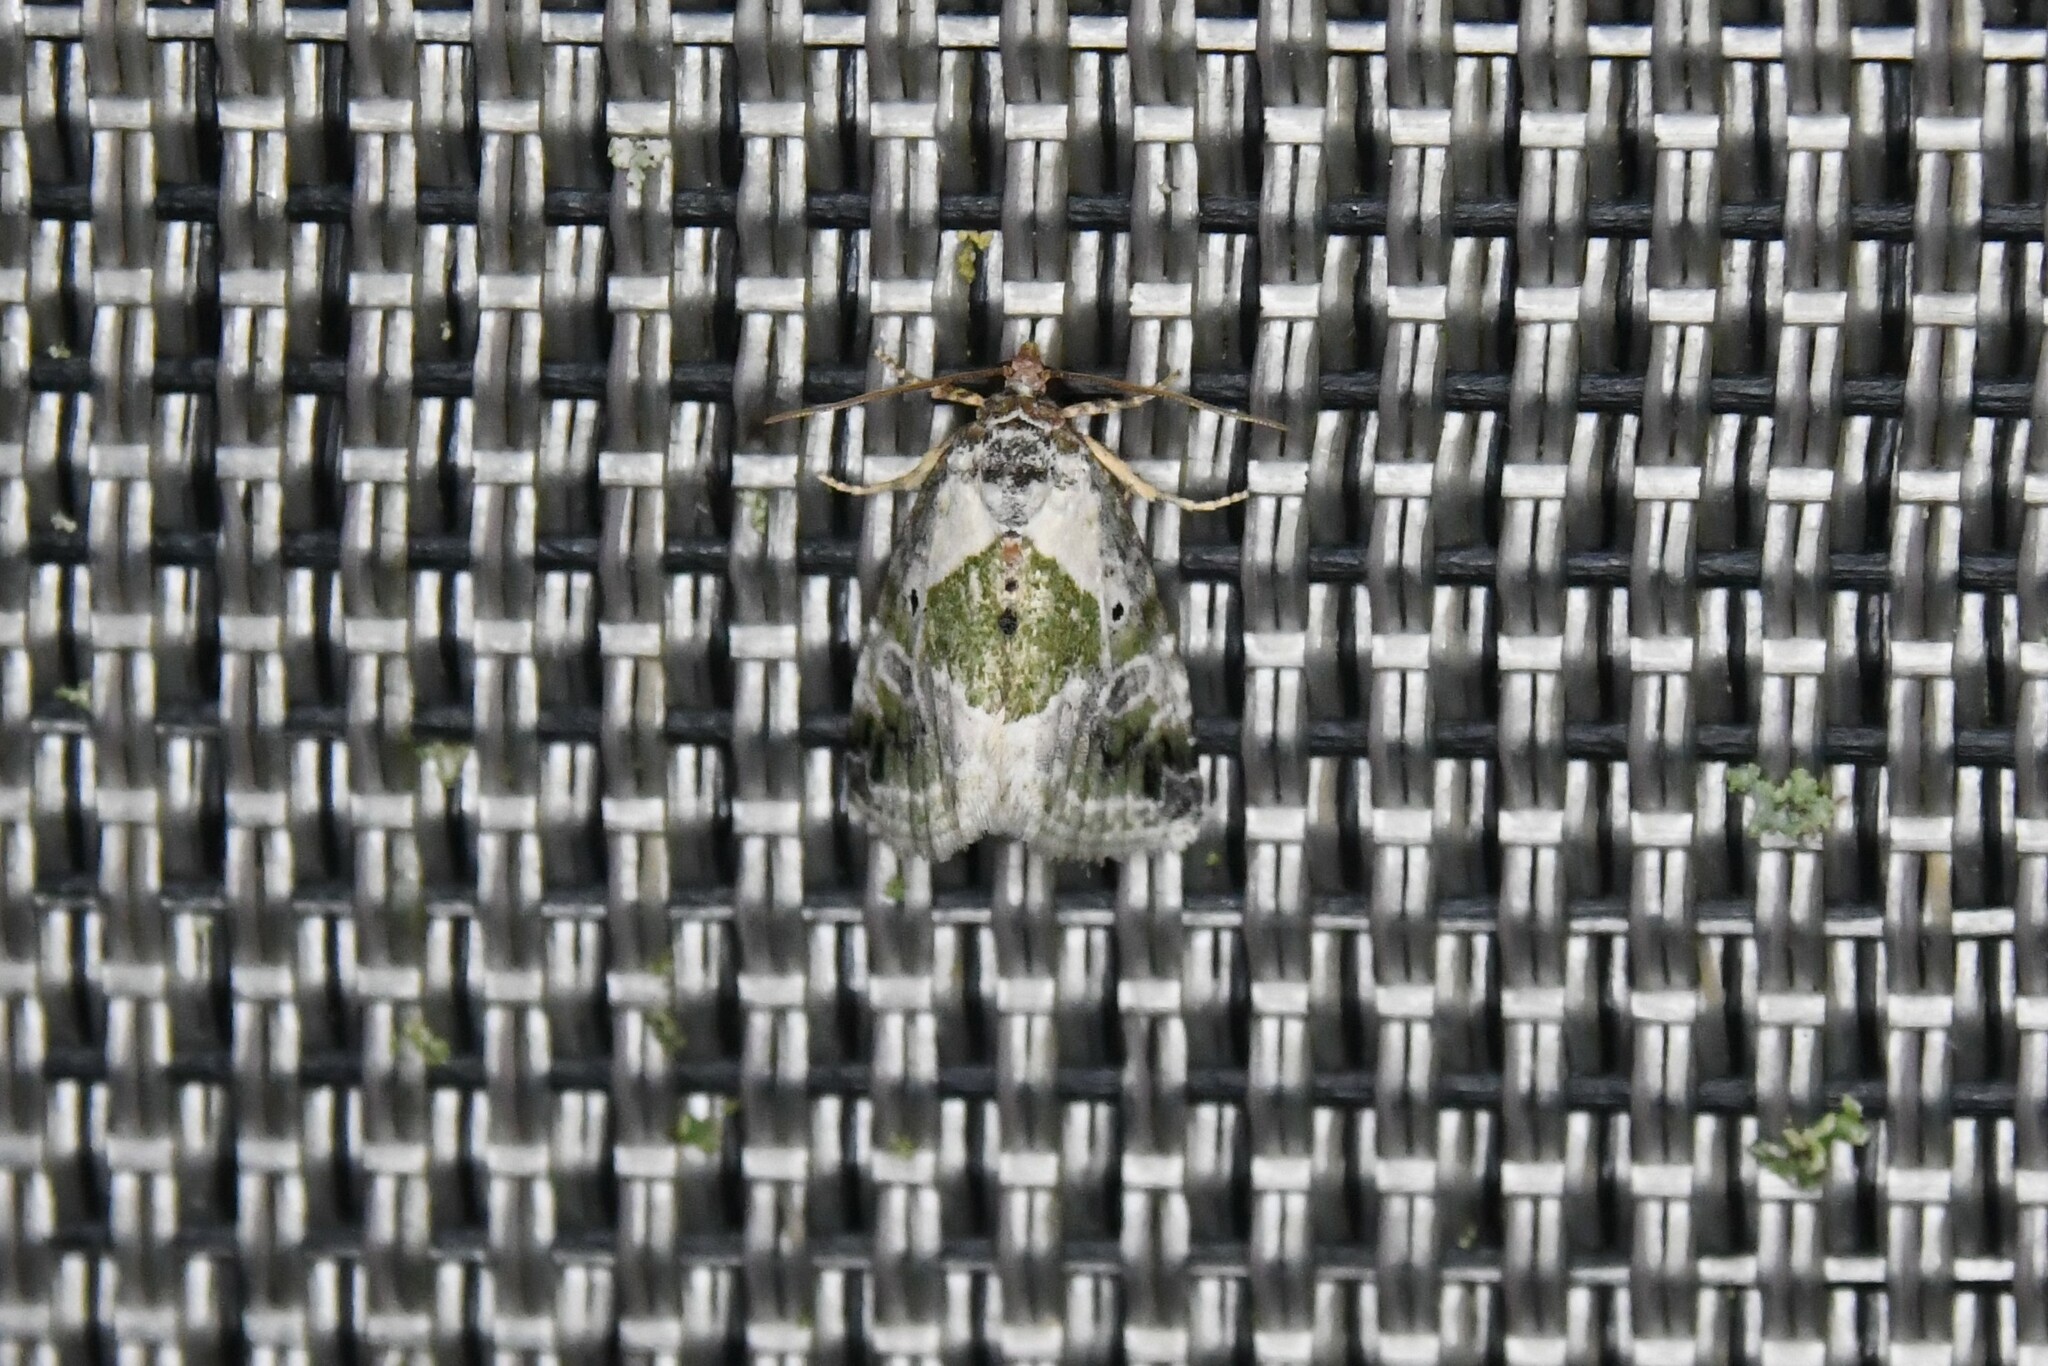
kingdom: Animalia
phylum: Arthropoda
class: Insecta
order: Lepidoptera
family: Noctuidae
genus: Maliattha
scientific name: Maliattha synochitis
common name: Black-dotted glyph
